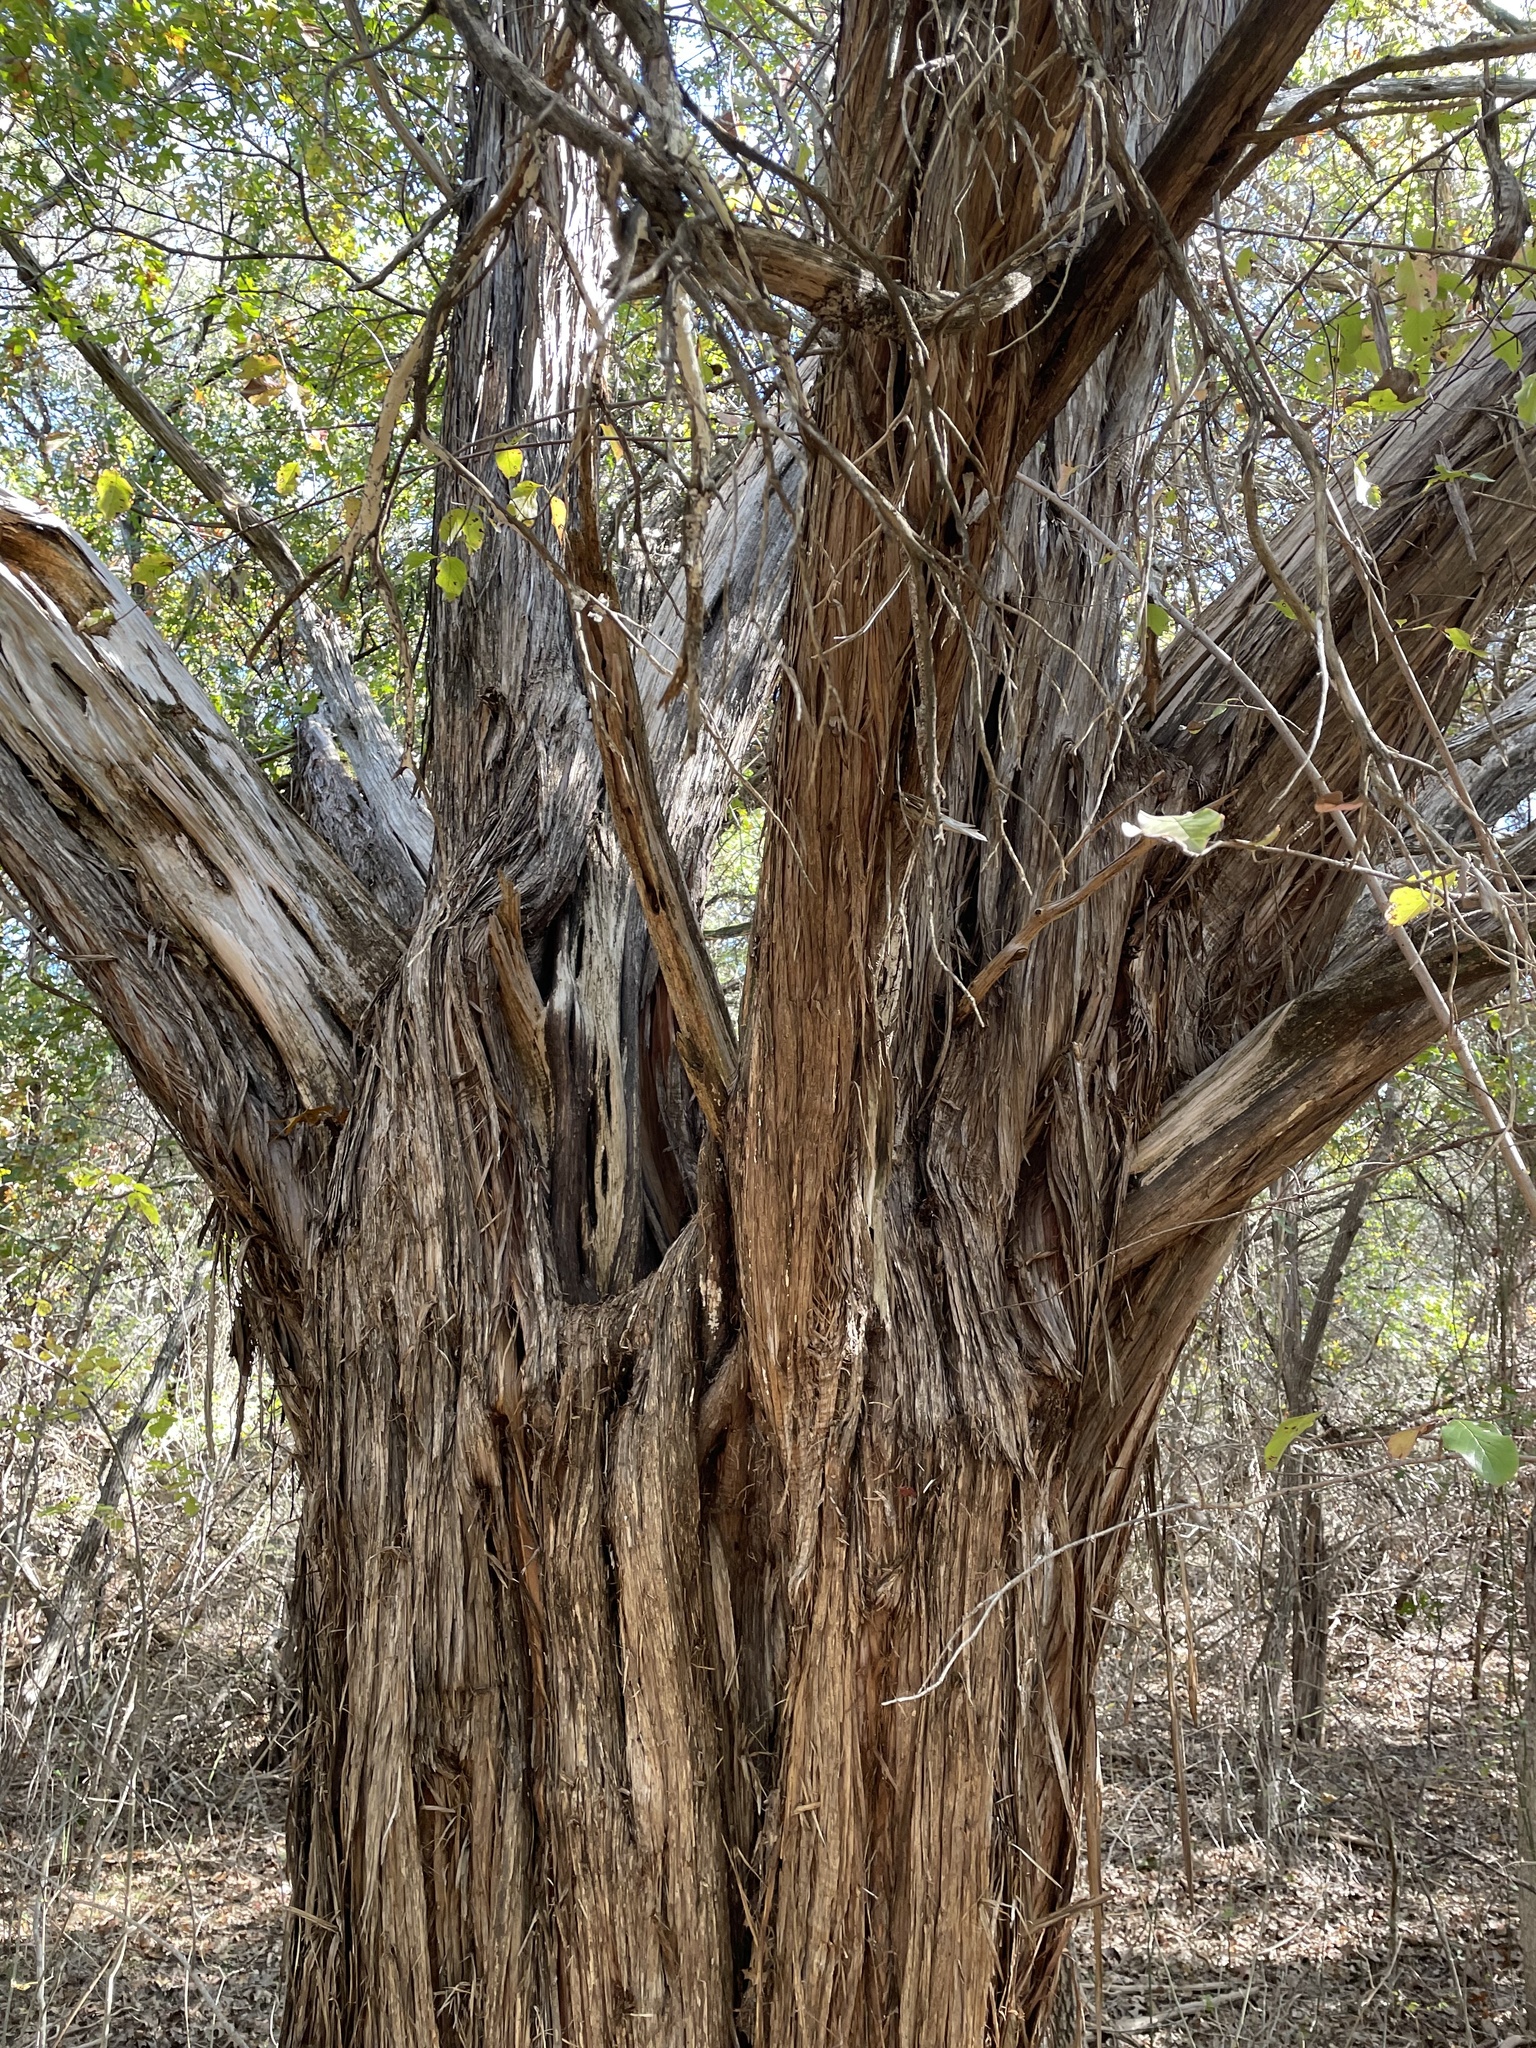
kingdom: Plantae
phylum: Tracheophyta
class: Pinopsida
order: Pinales
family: Cupressaceae
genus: Juniperus
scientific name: Juniperus ashei
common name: Mexican juniper
